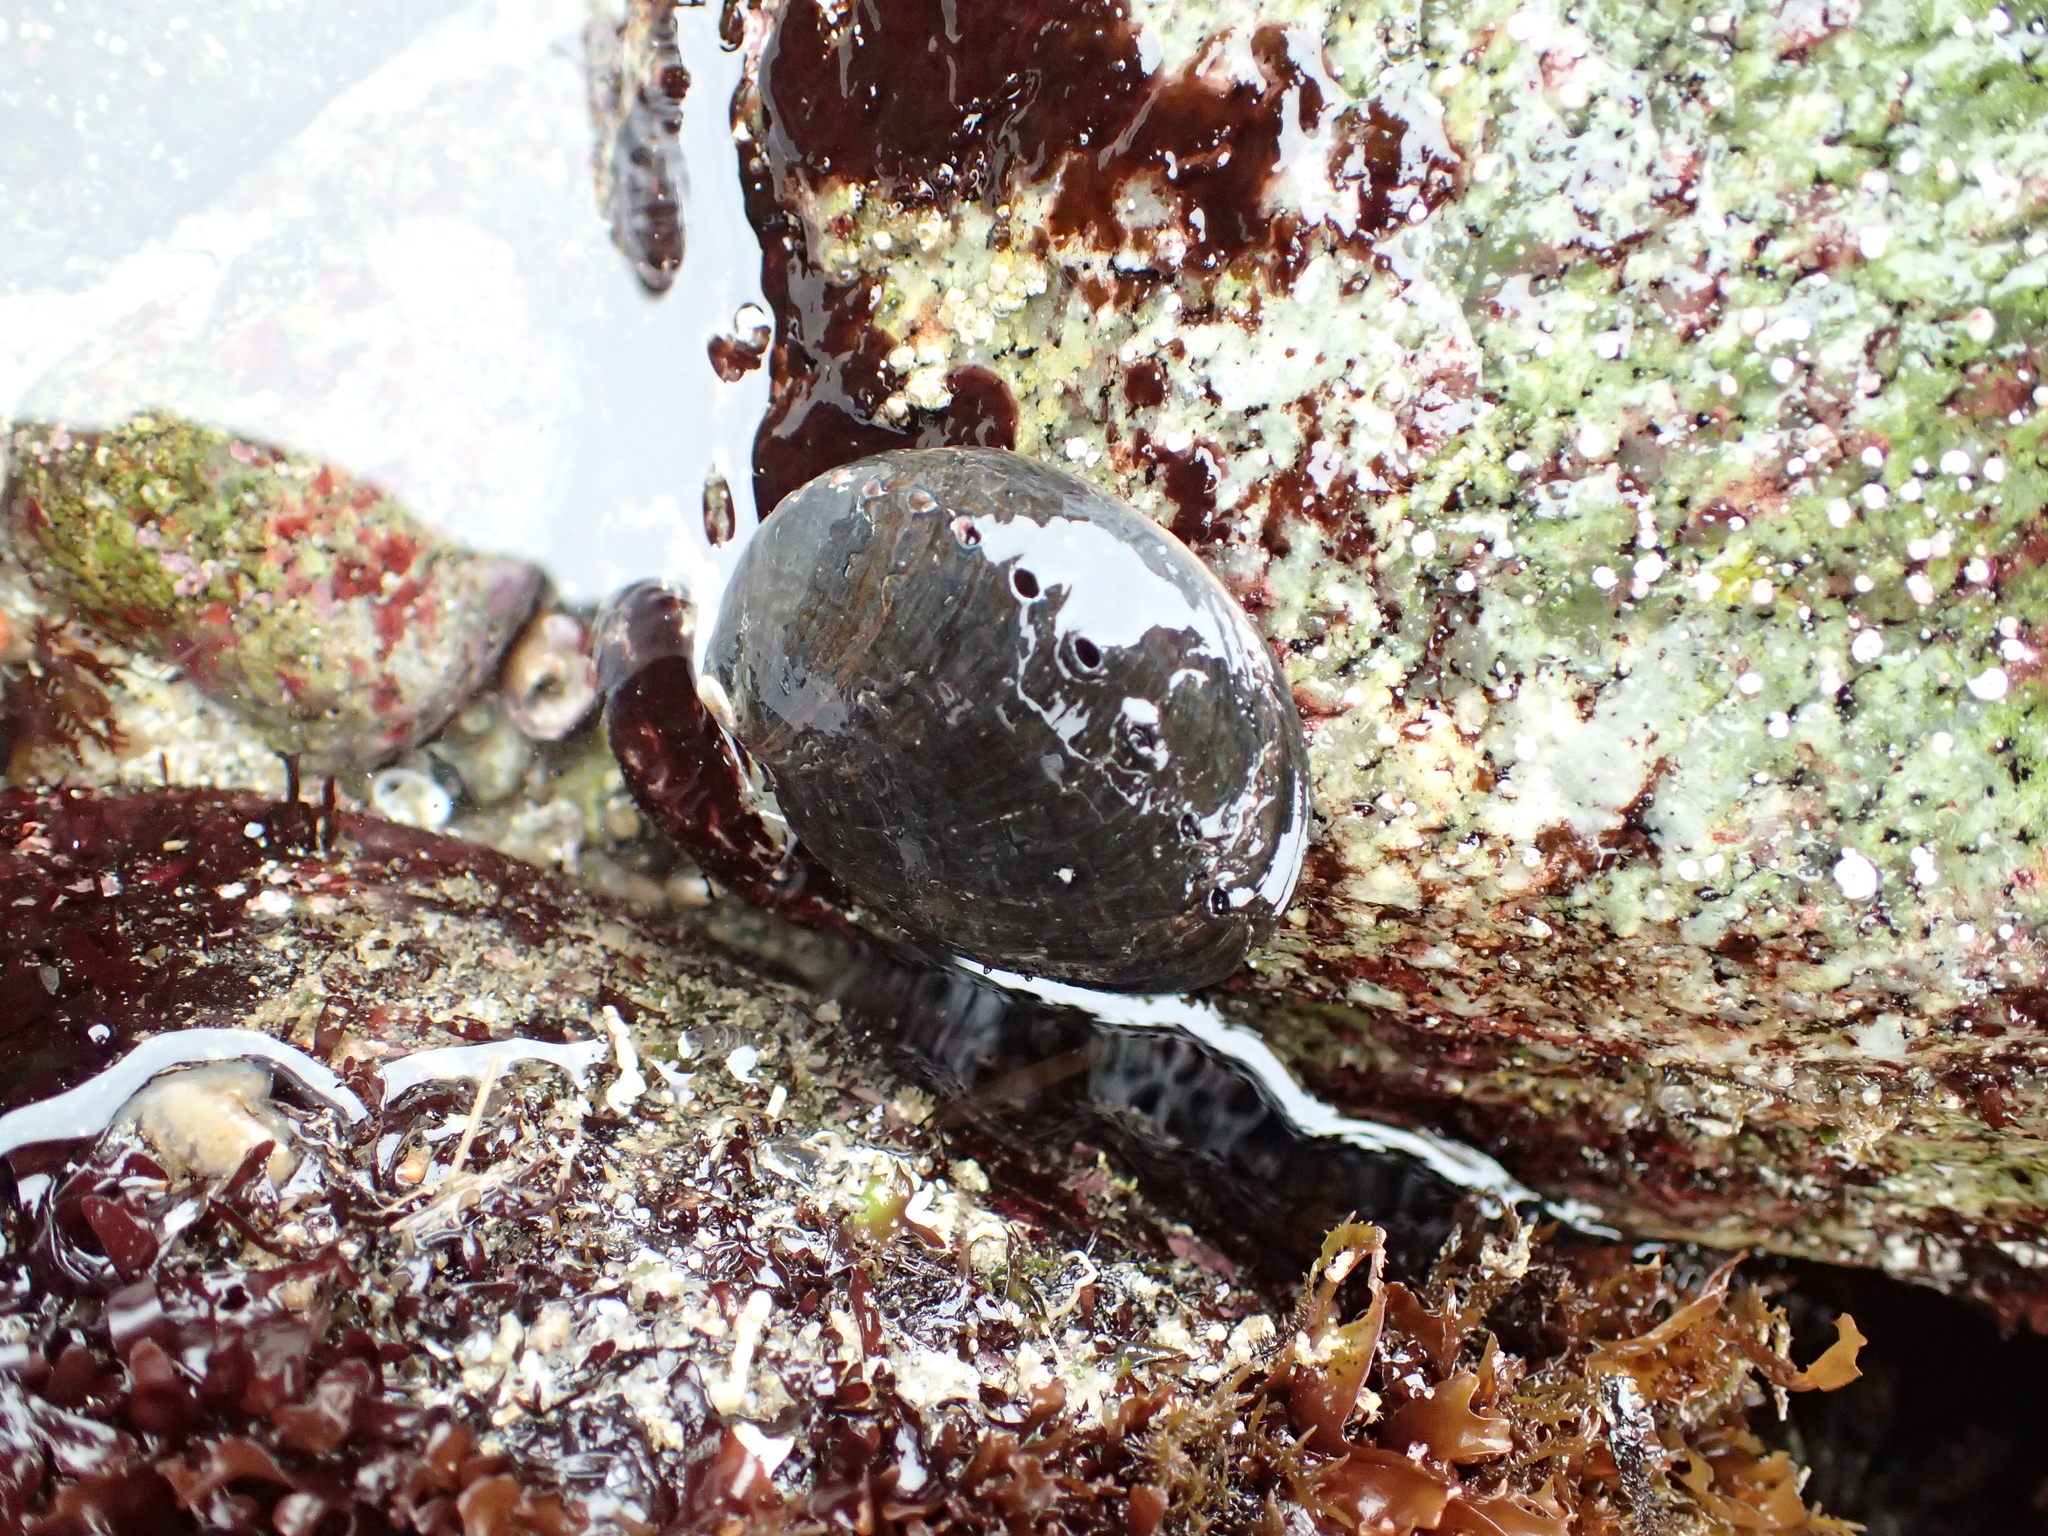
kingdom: Animalia
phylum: Mollusca
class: Gastropoda
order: Lepetellida
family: Haliotidae
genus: Haliotis
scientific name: Haliotis cracherodii
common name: Black abalone
